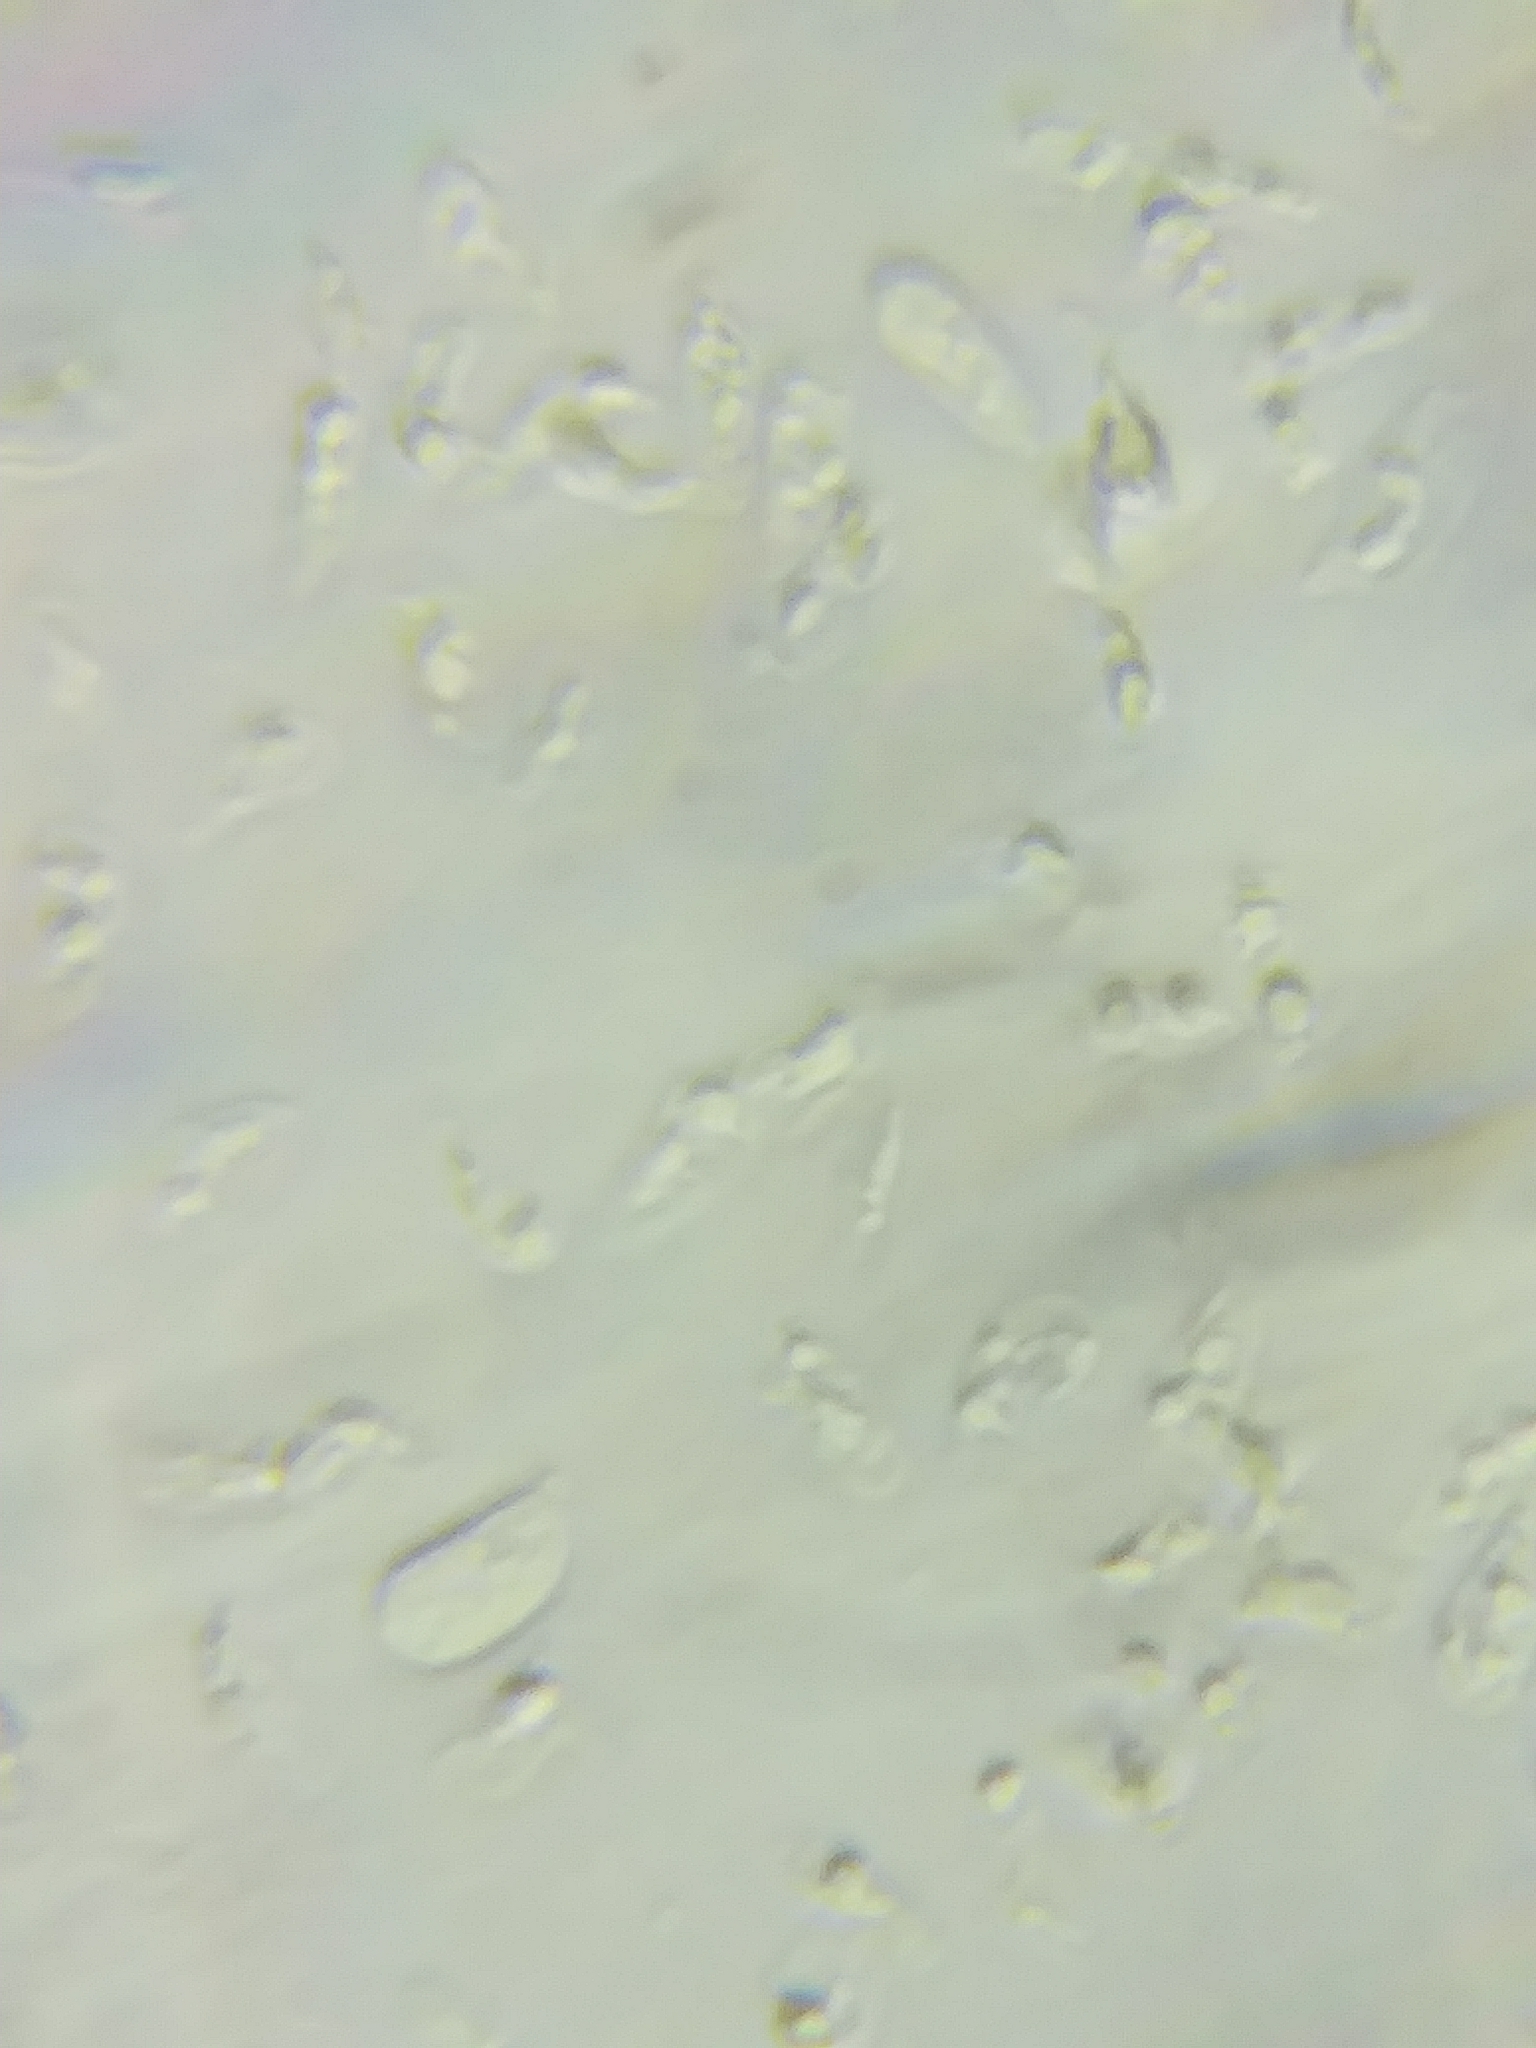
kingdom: Fungi
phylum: Basidiomycota
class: Agaricomycetes
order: Agaricales
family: Mycenaceae
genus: Hydropus
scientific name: Hydropus praedecurrens
